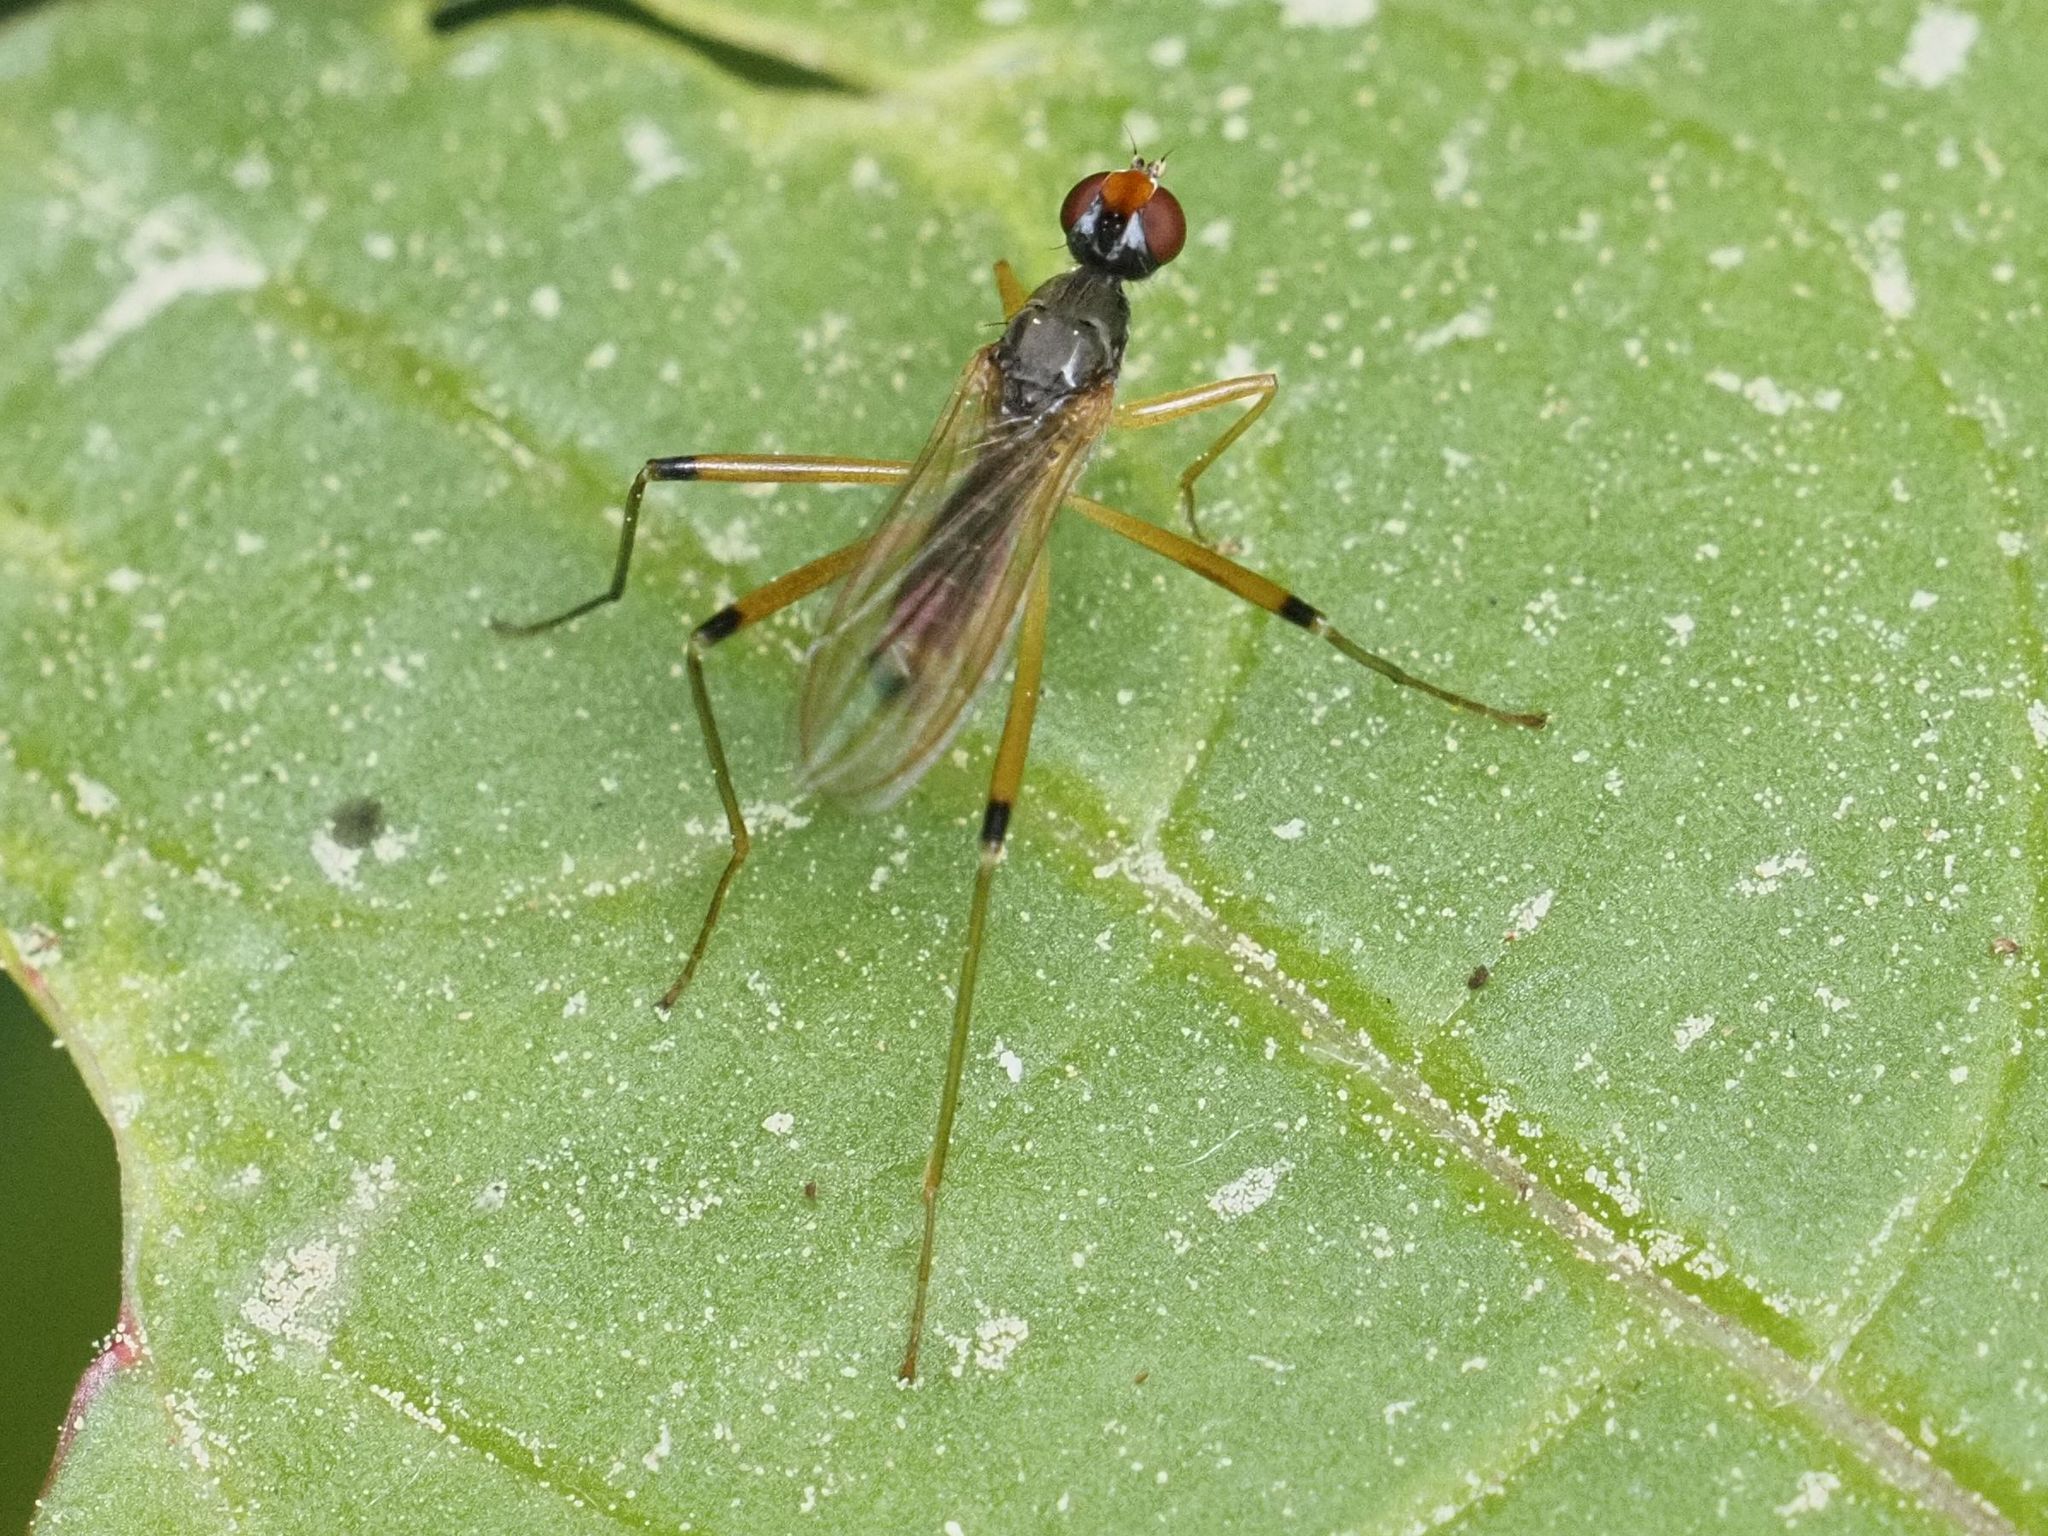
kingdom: Animalia
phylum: Arthropoda
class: Insecta
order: Diptera
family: Micropezidae
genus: Compsobata
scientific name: Compsobata cibaria
